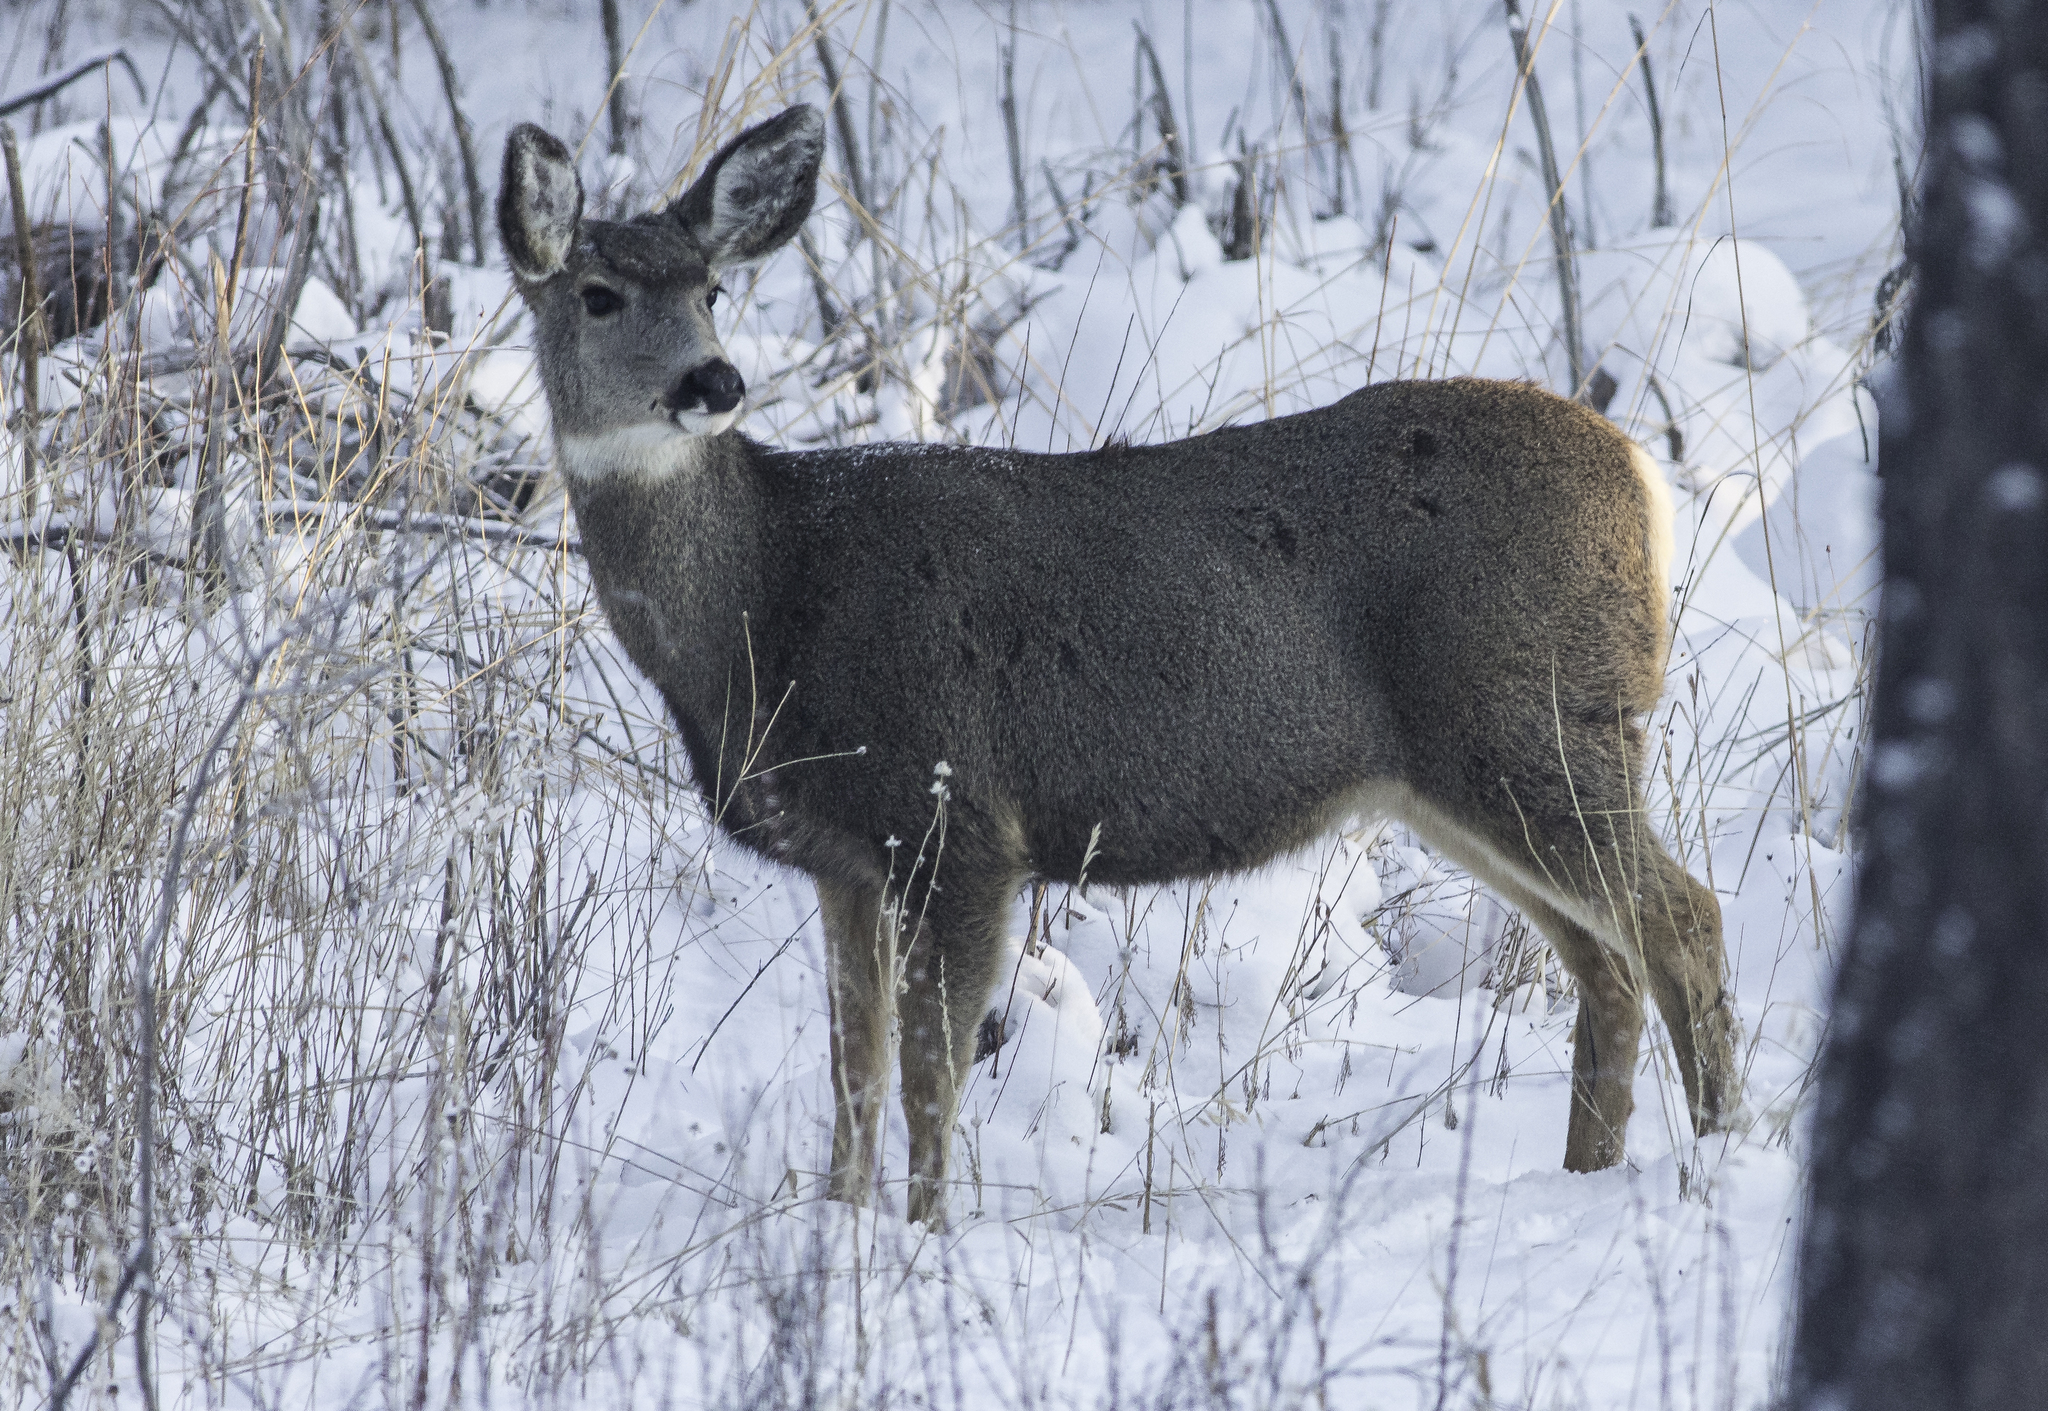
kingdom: Animalia
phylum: Chordata
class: Mammalia
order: Artiodactyla
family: Cervidae
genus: Odocoileus
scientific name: Odocoileus hemionus
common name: Mule deer
